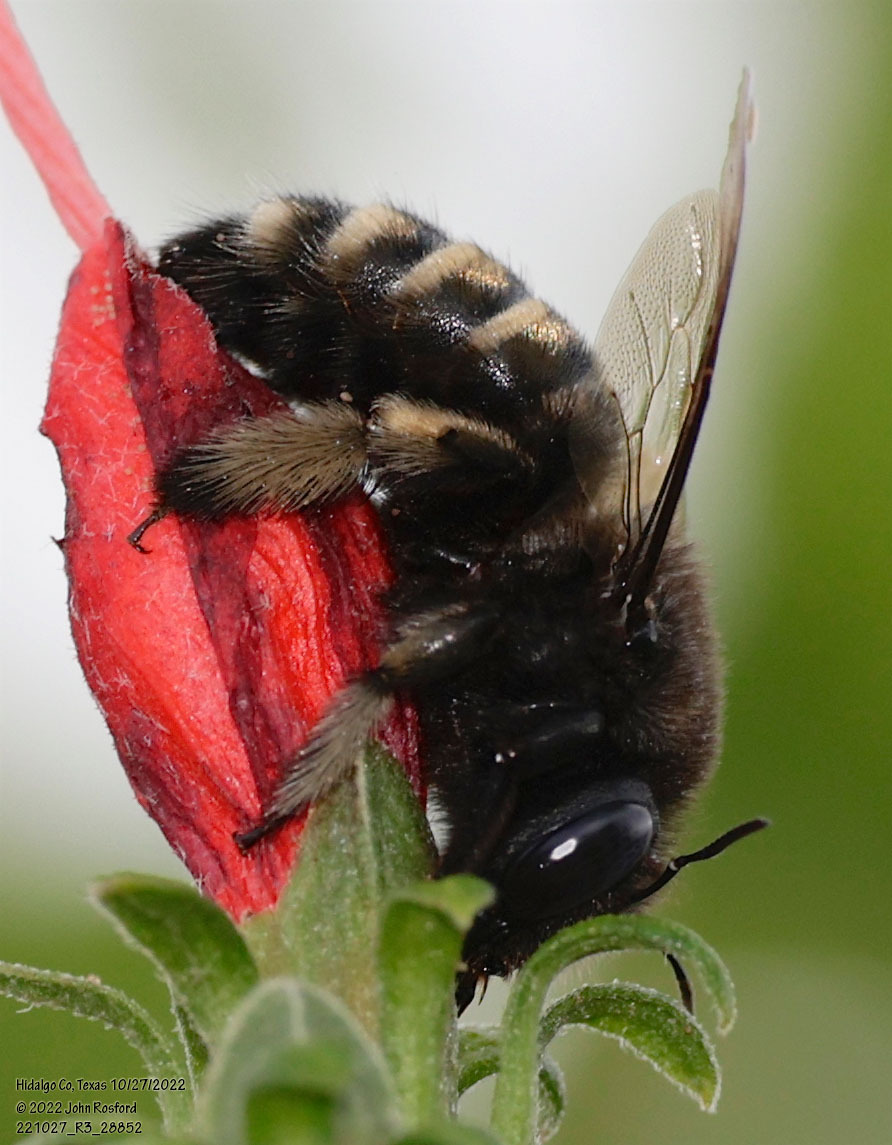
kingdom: Animalia
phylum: Arthropoda
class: Insecta
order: Hymenoptera
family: Apidae
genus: Xylocopa
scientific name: Xylocopa tabaniformis
